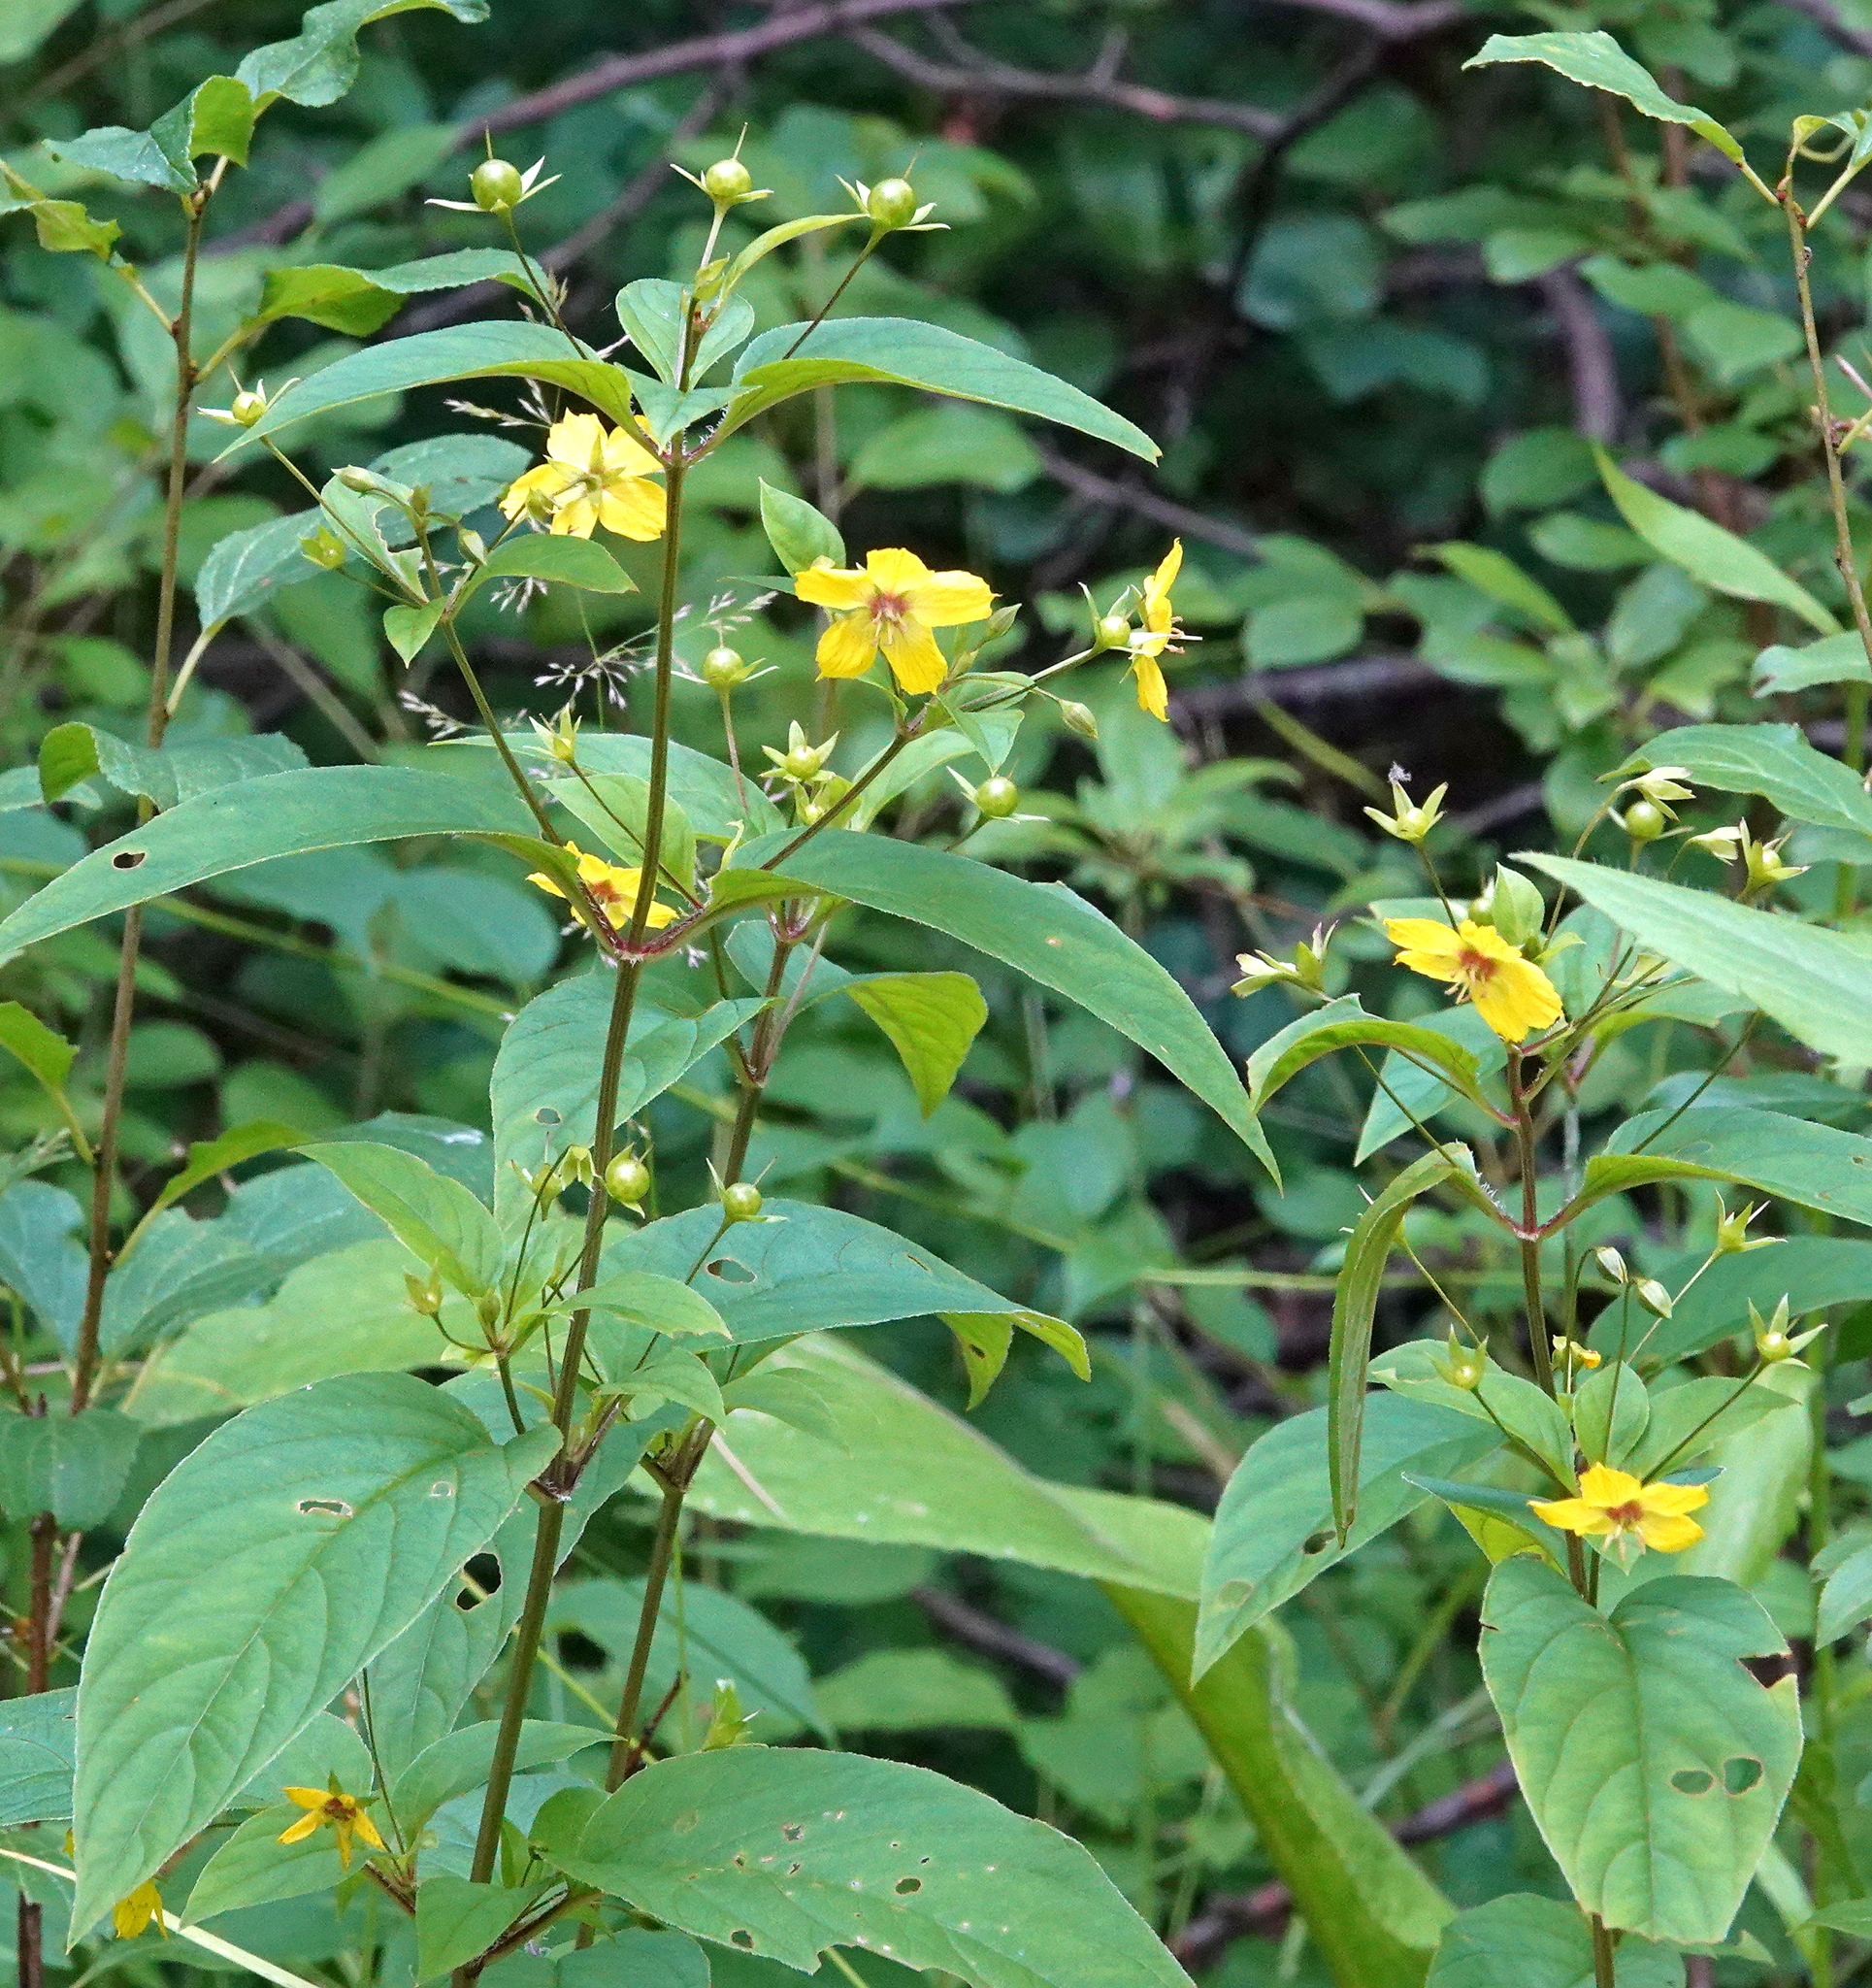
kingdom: Plantae
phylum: Tracheophyta
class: Magnoliopsida
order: Ericales
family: Primulaceae
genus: Lysimachia
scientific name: Lysimachia ciliata
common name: Fringed loosestrife
